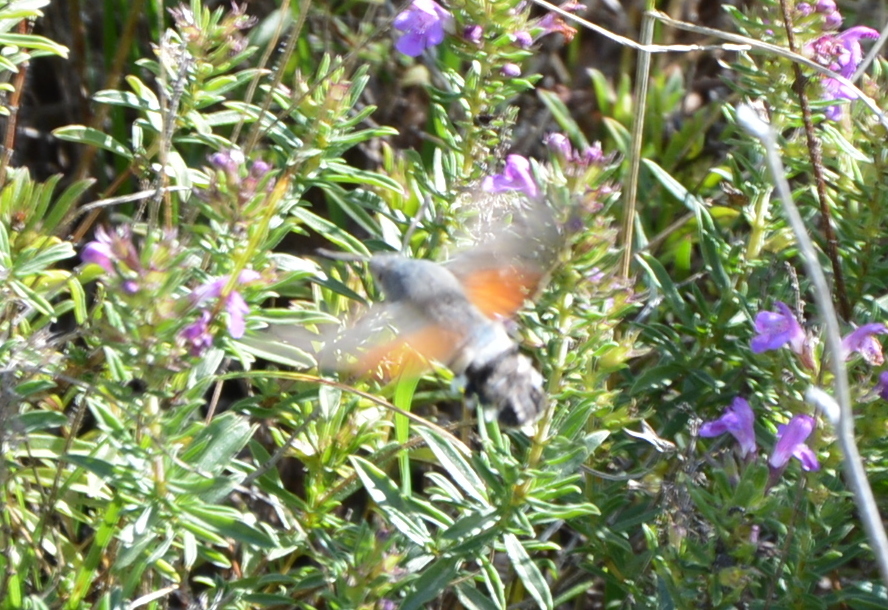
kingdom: Animalia
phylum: Arthropoda
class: Insecta
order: Lepidoptera
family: Sphingidae
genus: Macroglossum
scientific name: Macroglossum stellatarum
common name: Humming-bird hawk-moth
